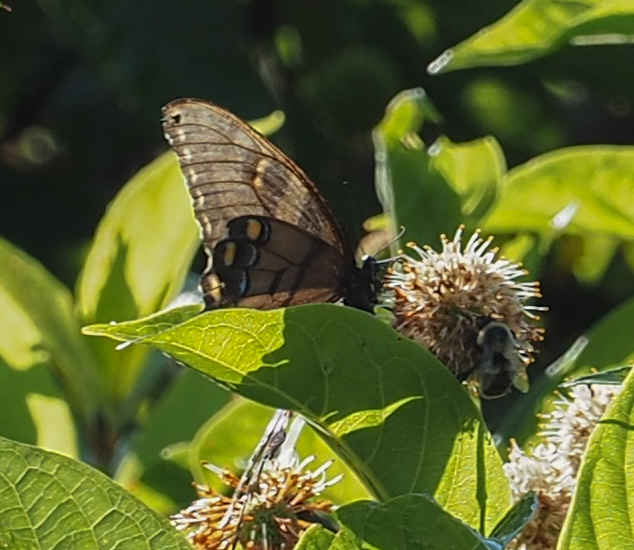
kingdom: Animalia
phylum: Arthropoda
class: Insecta
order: Lepidoptera
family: Papilionidae
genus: Papilio
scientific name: Papilio glaucus
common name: Tiger swallowtail
